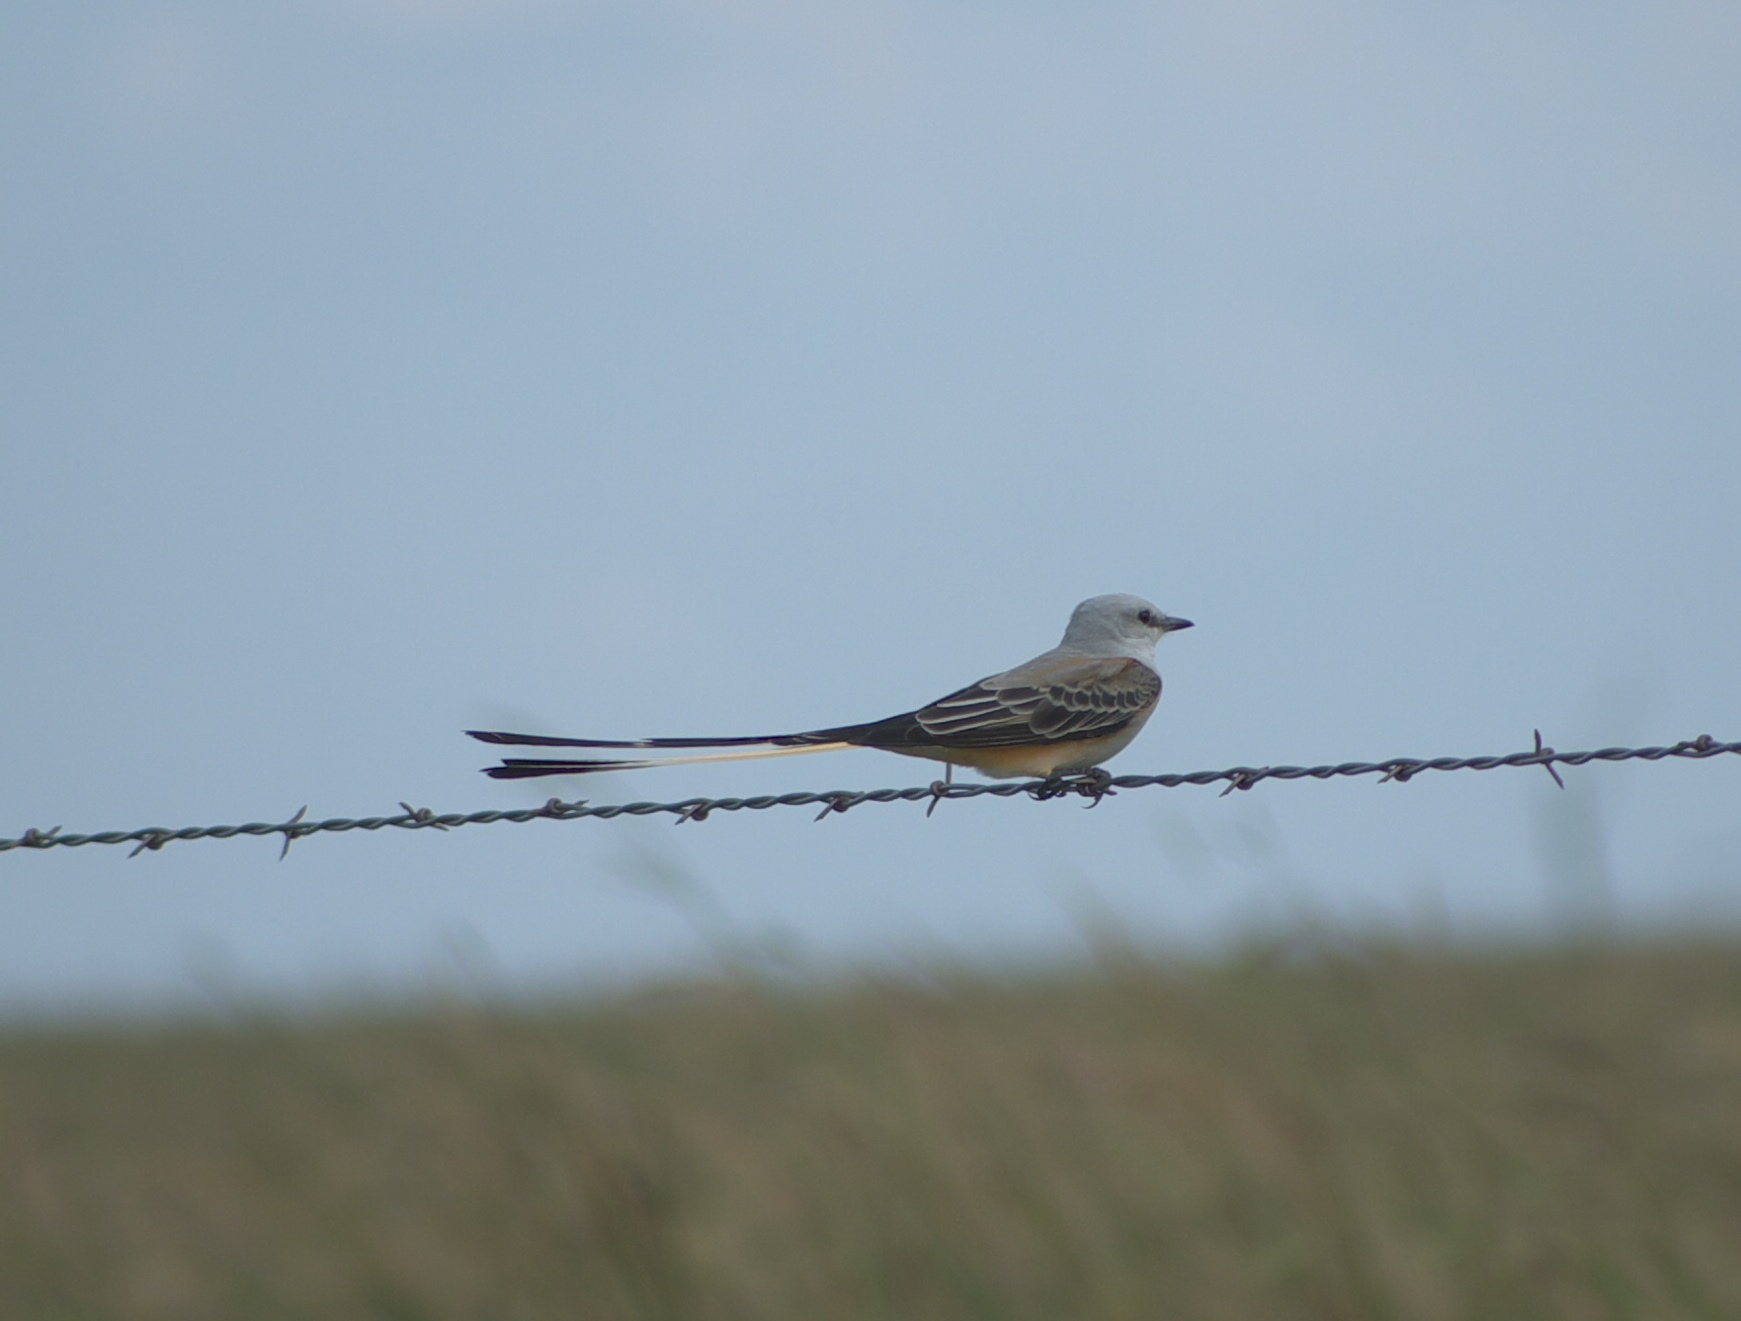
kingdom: Animalia
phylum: Chordata
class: Aves
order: Passeriformes
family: Tyrannidae
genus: Tyrannus
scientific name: Tyrannus forficatus
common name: Scissor-tailed flycatcher
